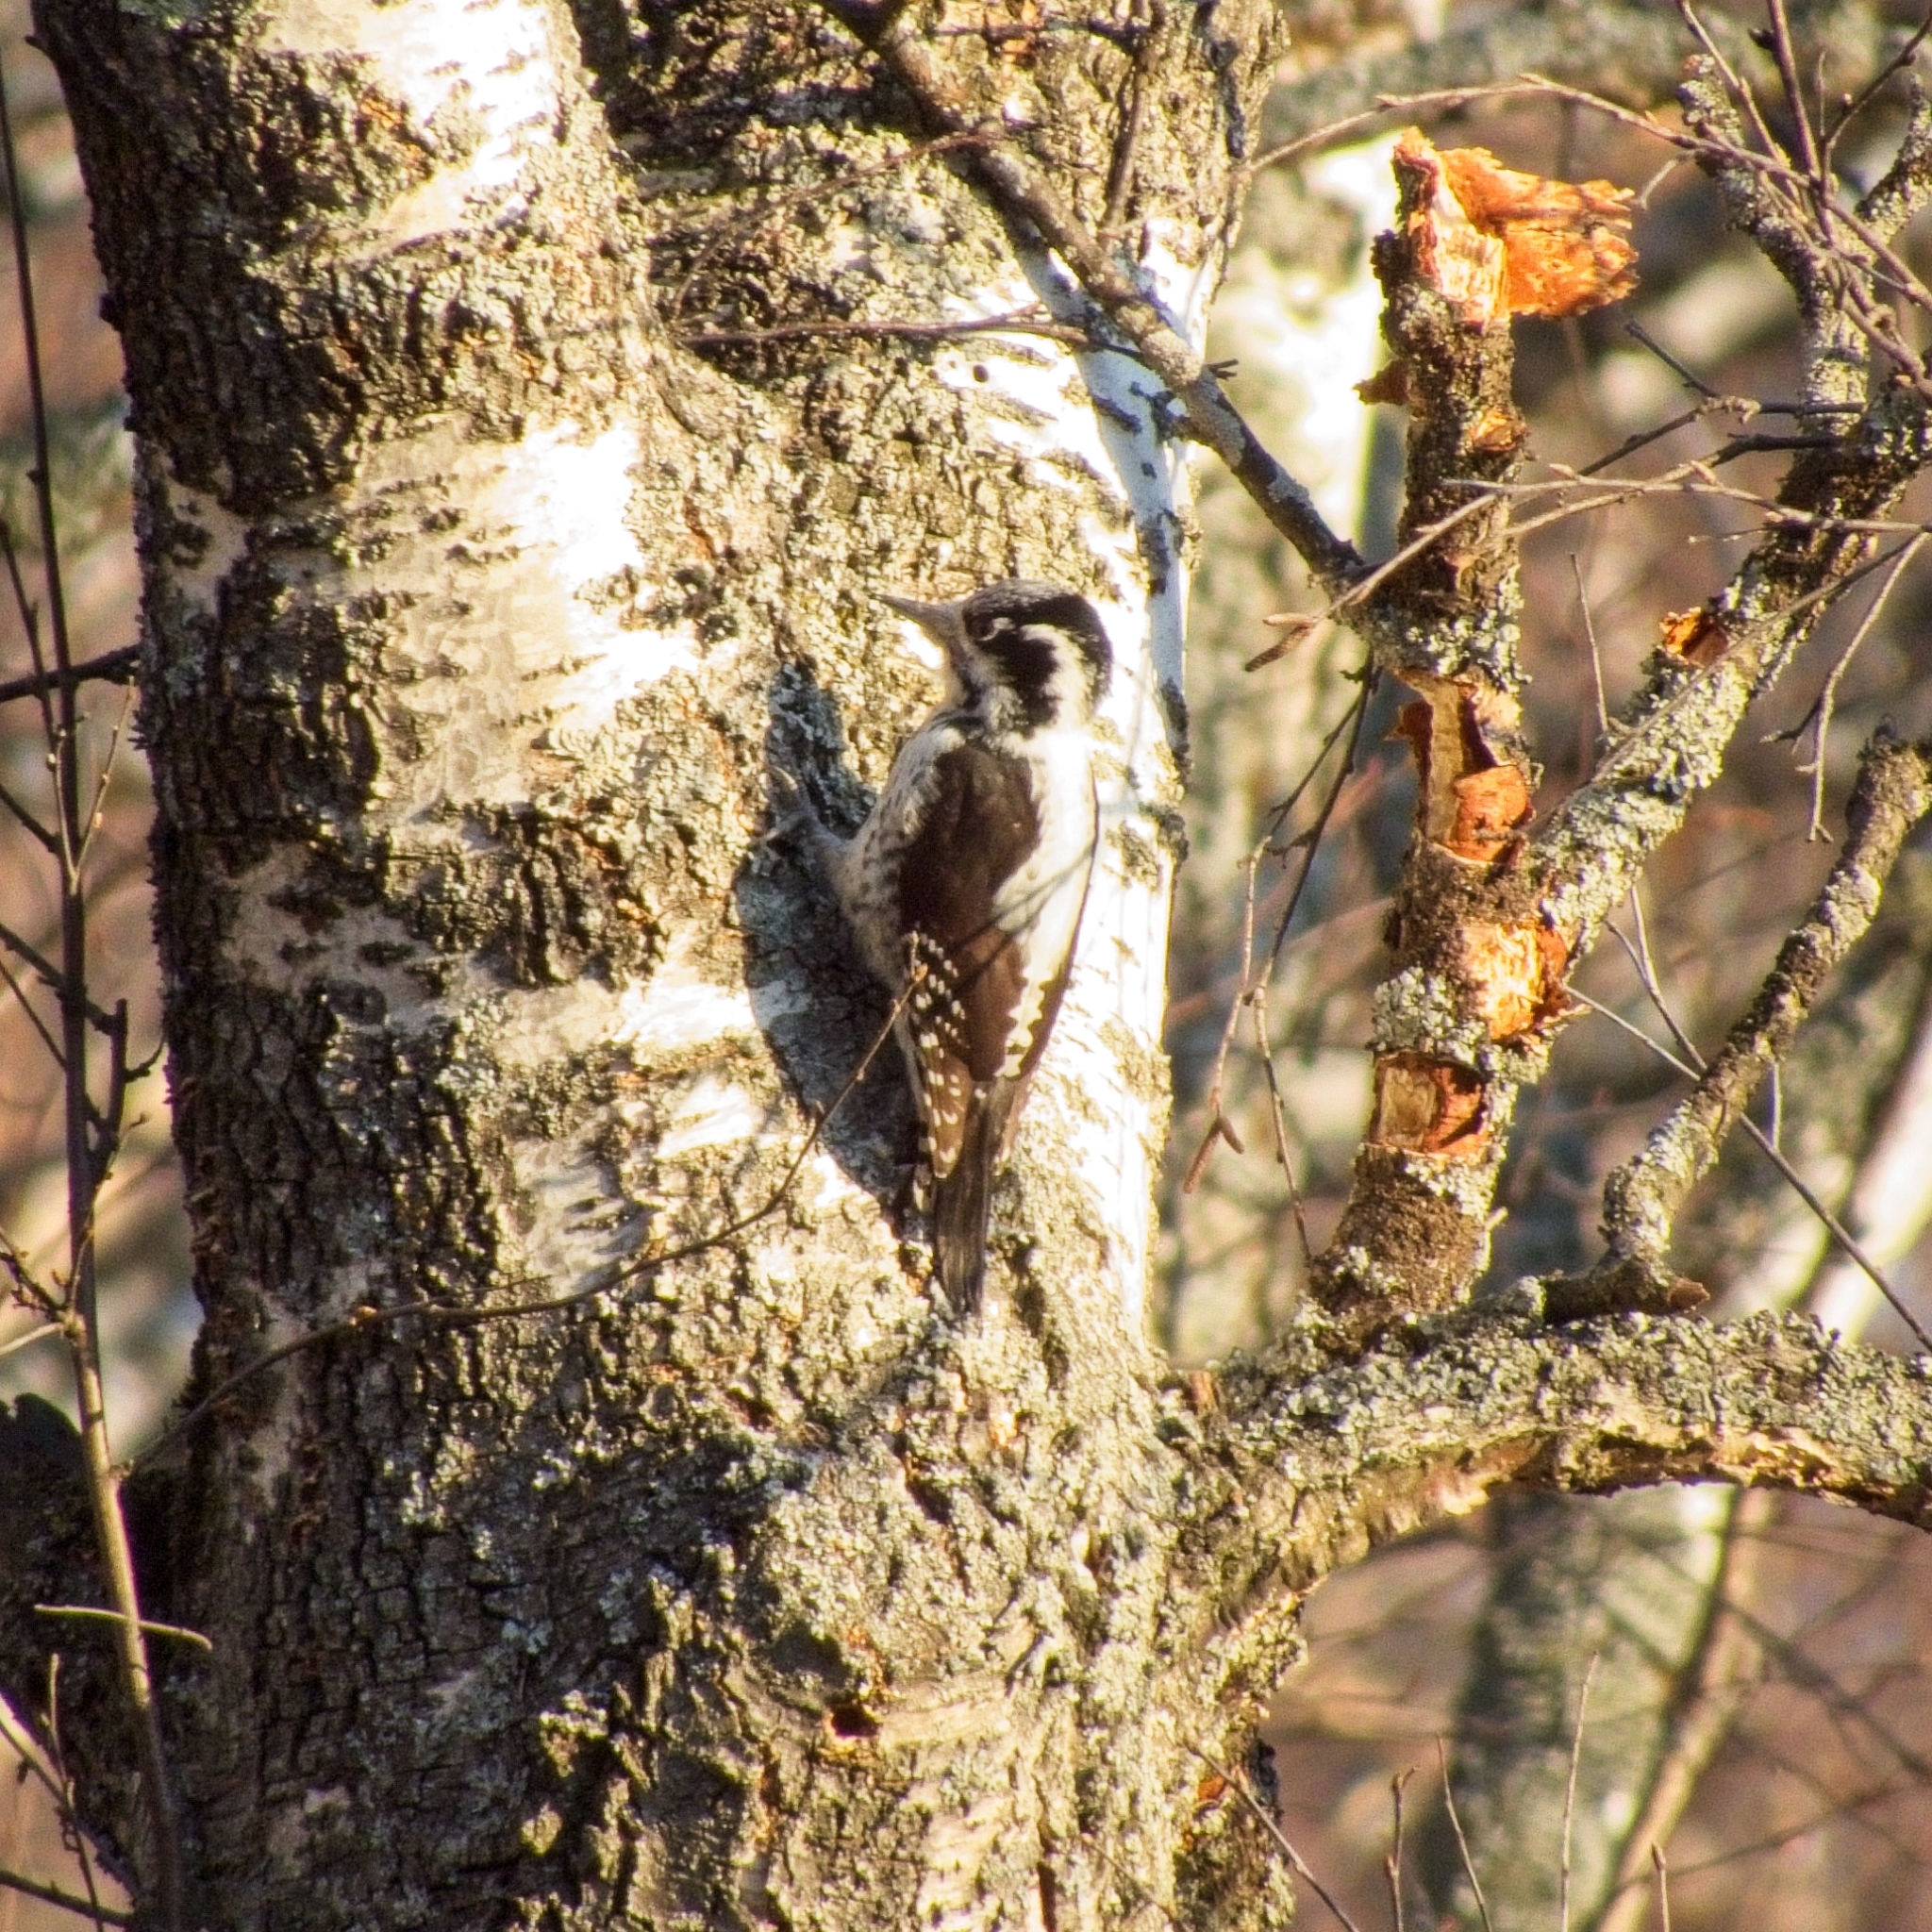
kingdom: Animalia
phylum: Chordata
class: Aves
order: Piciformes
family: Picidae
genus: Picoides
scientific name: Picoides tridactylus
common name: Eurasian three-toed woodpecker
